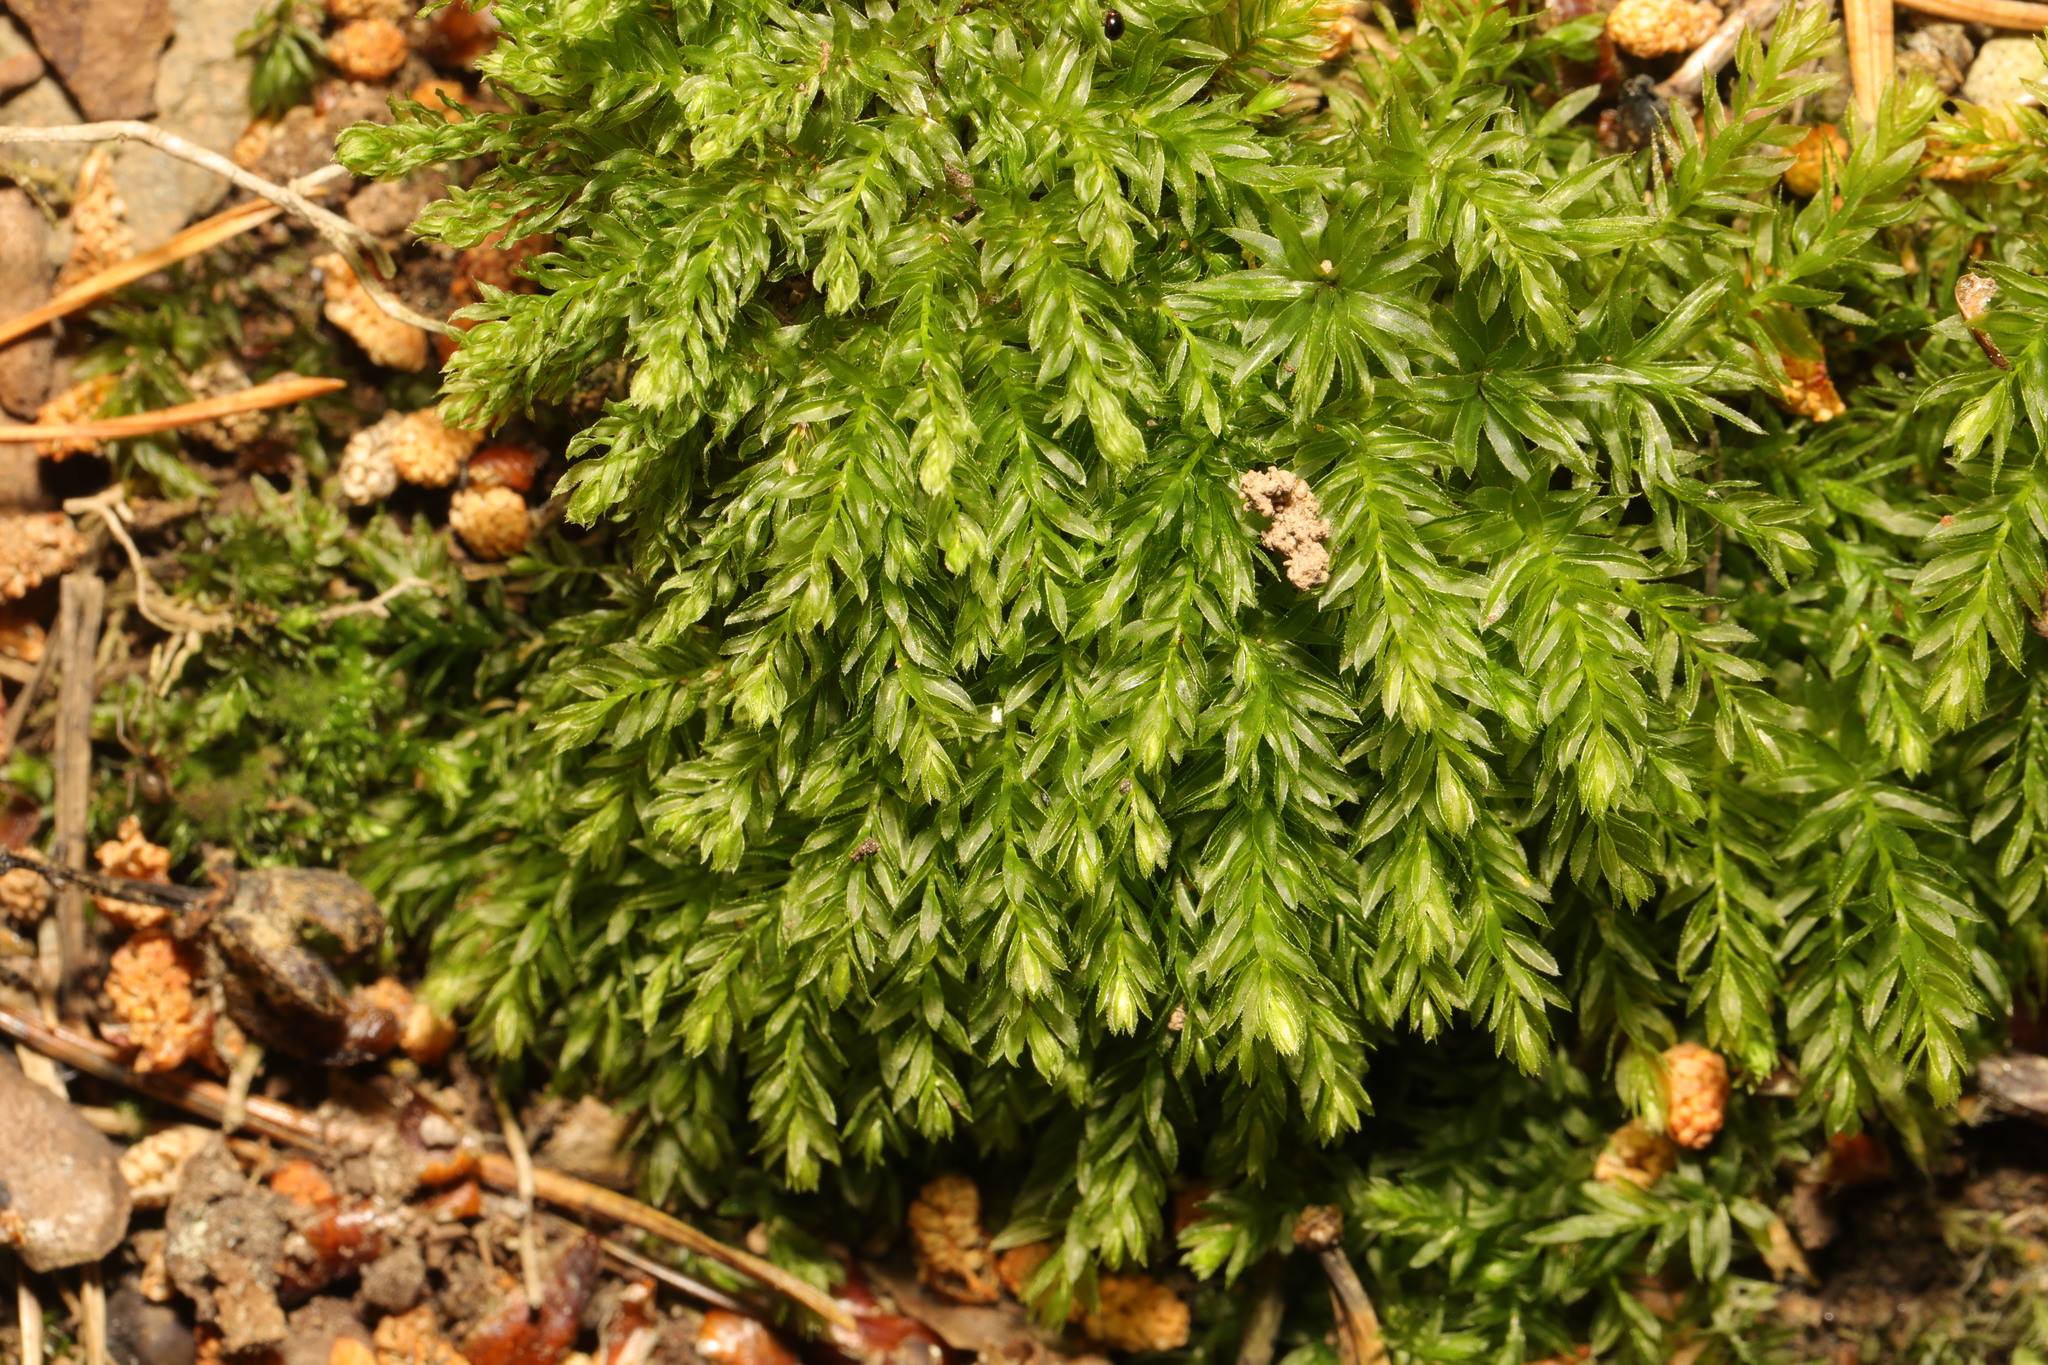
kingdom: Plantae
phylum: Bryophyta
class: Bryopsida
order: Bryales
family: Mniaceae
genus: Mnium
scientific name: Mnium hornum
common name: Swan's-neck leafy moss
